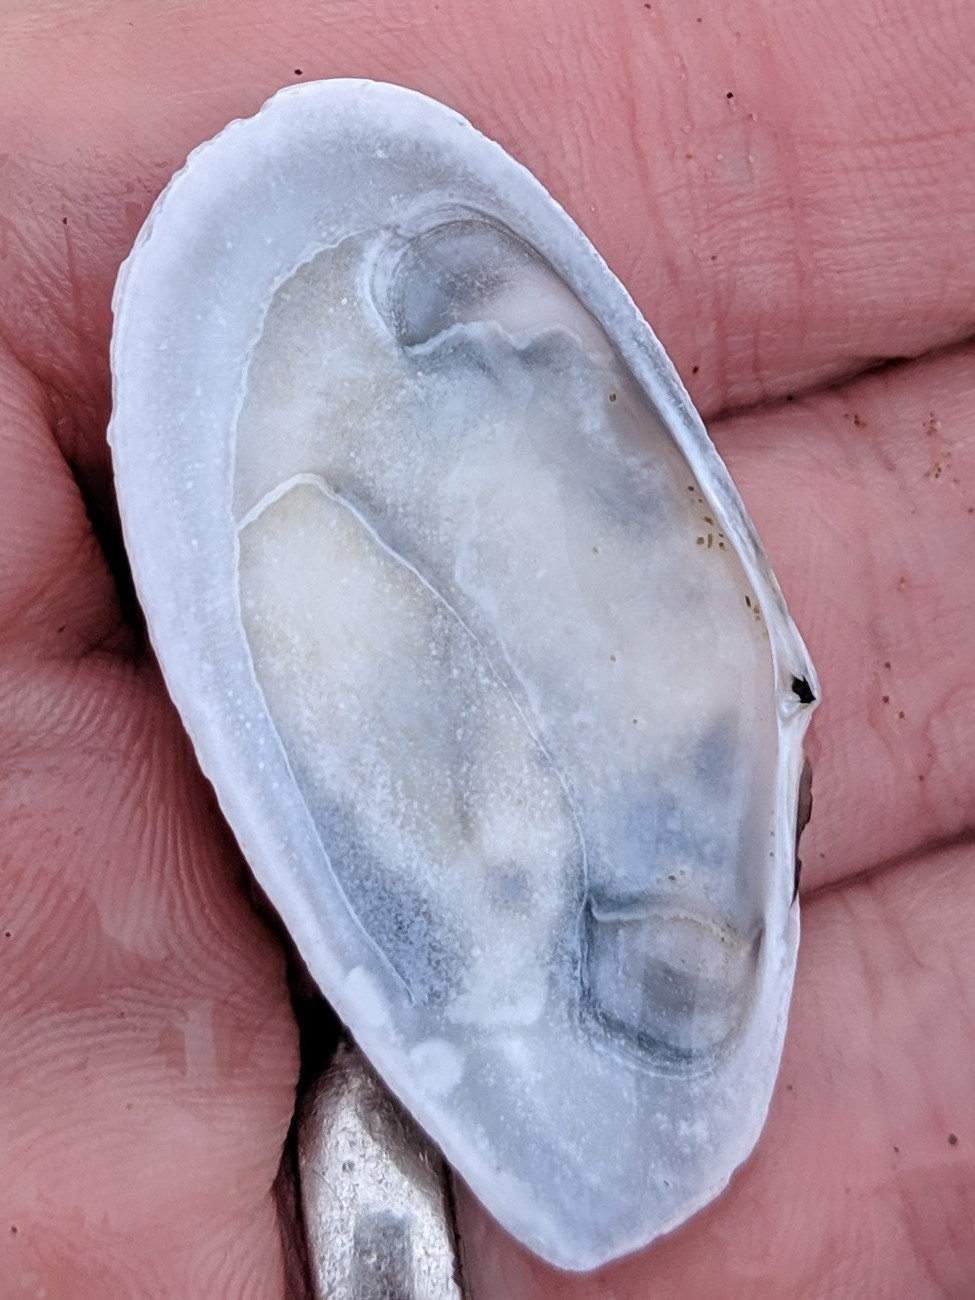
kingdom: Animalia
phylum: Mollusca
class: Bivalvia
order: Cardiida
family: Tellinidae
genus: Megangulus
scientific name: Megangulus bodegensis
